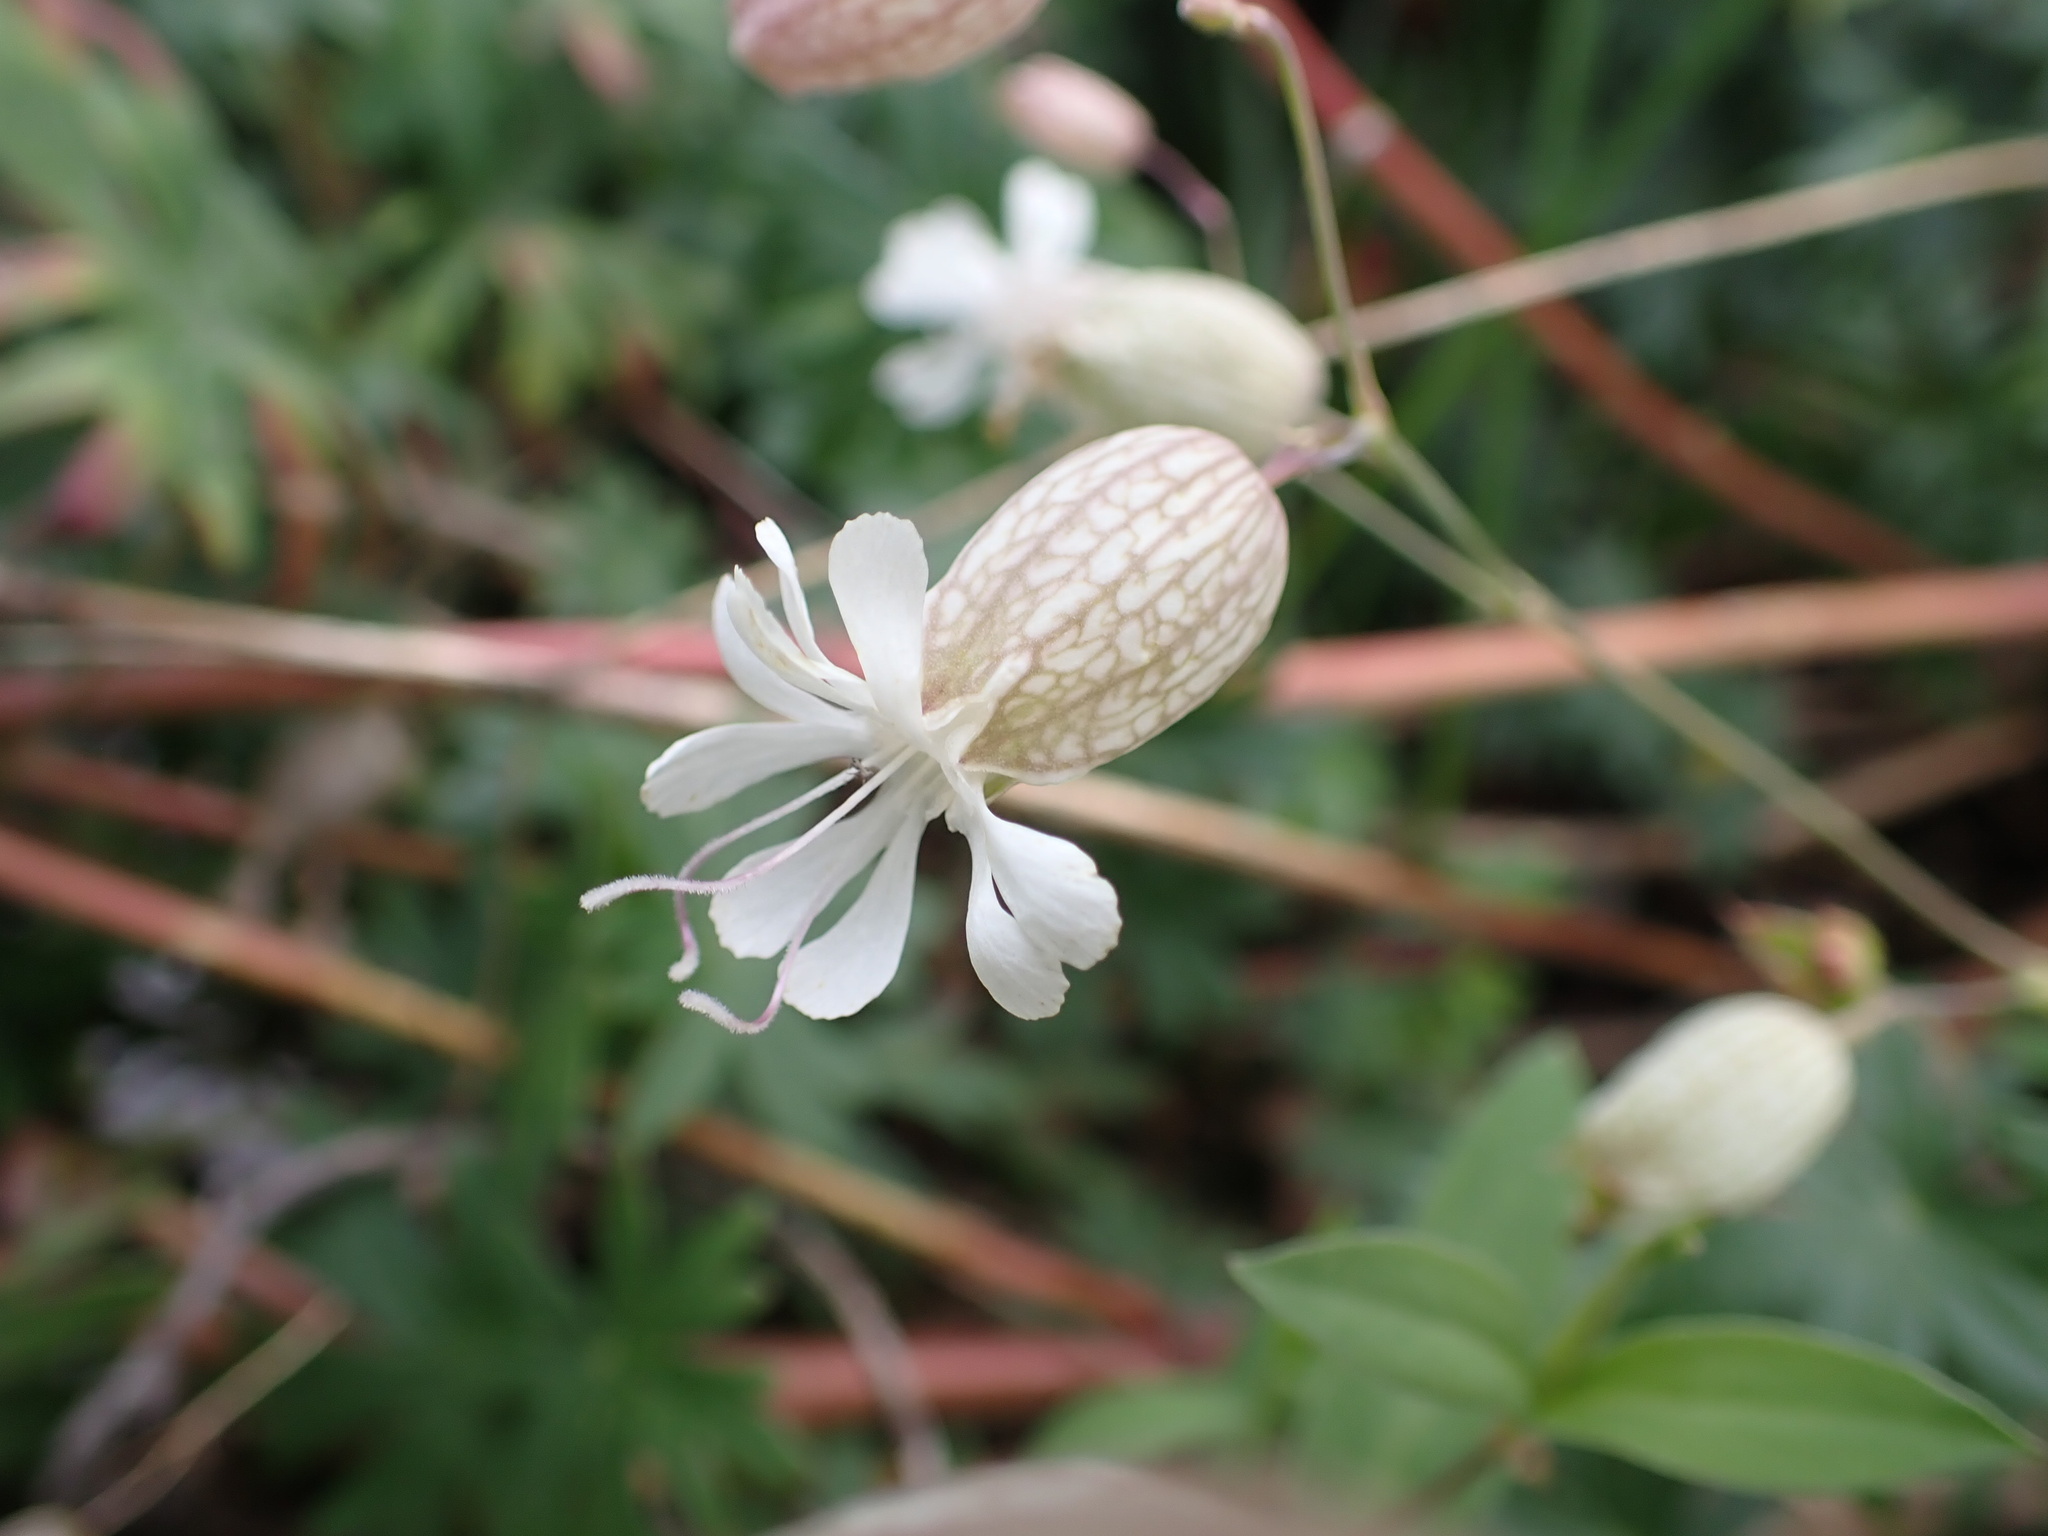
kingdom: Plantae
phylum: Tracheophyta
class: Magnoliopsida
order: Caryophyllales
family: Caryophyllaceae
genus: Silene
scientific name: Silene vulgaris
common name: Bladder campion
